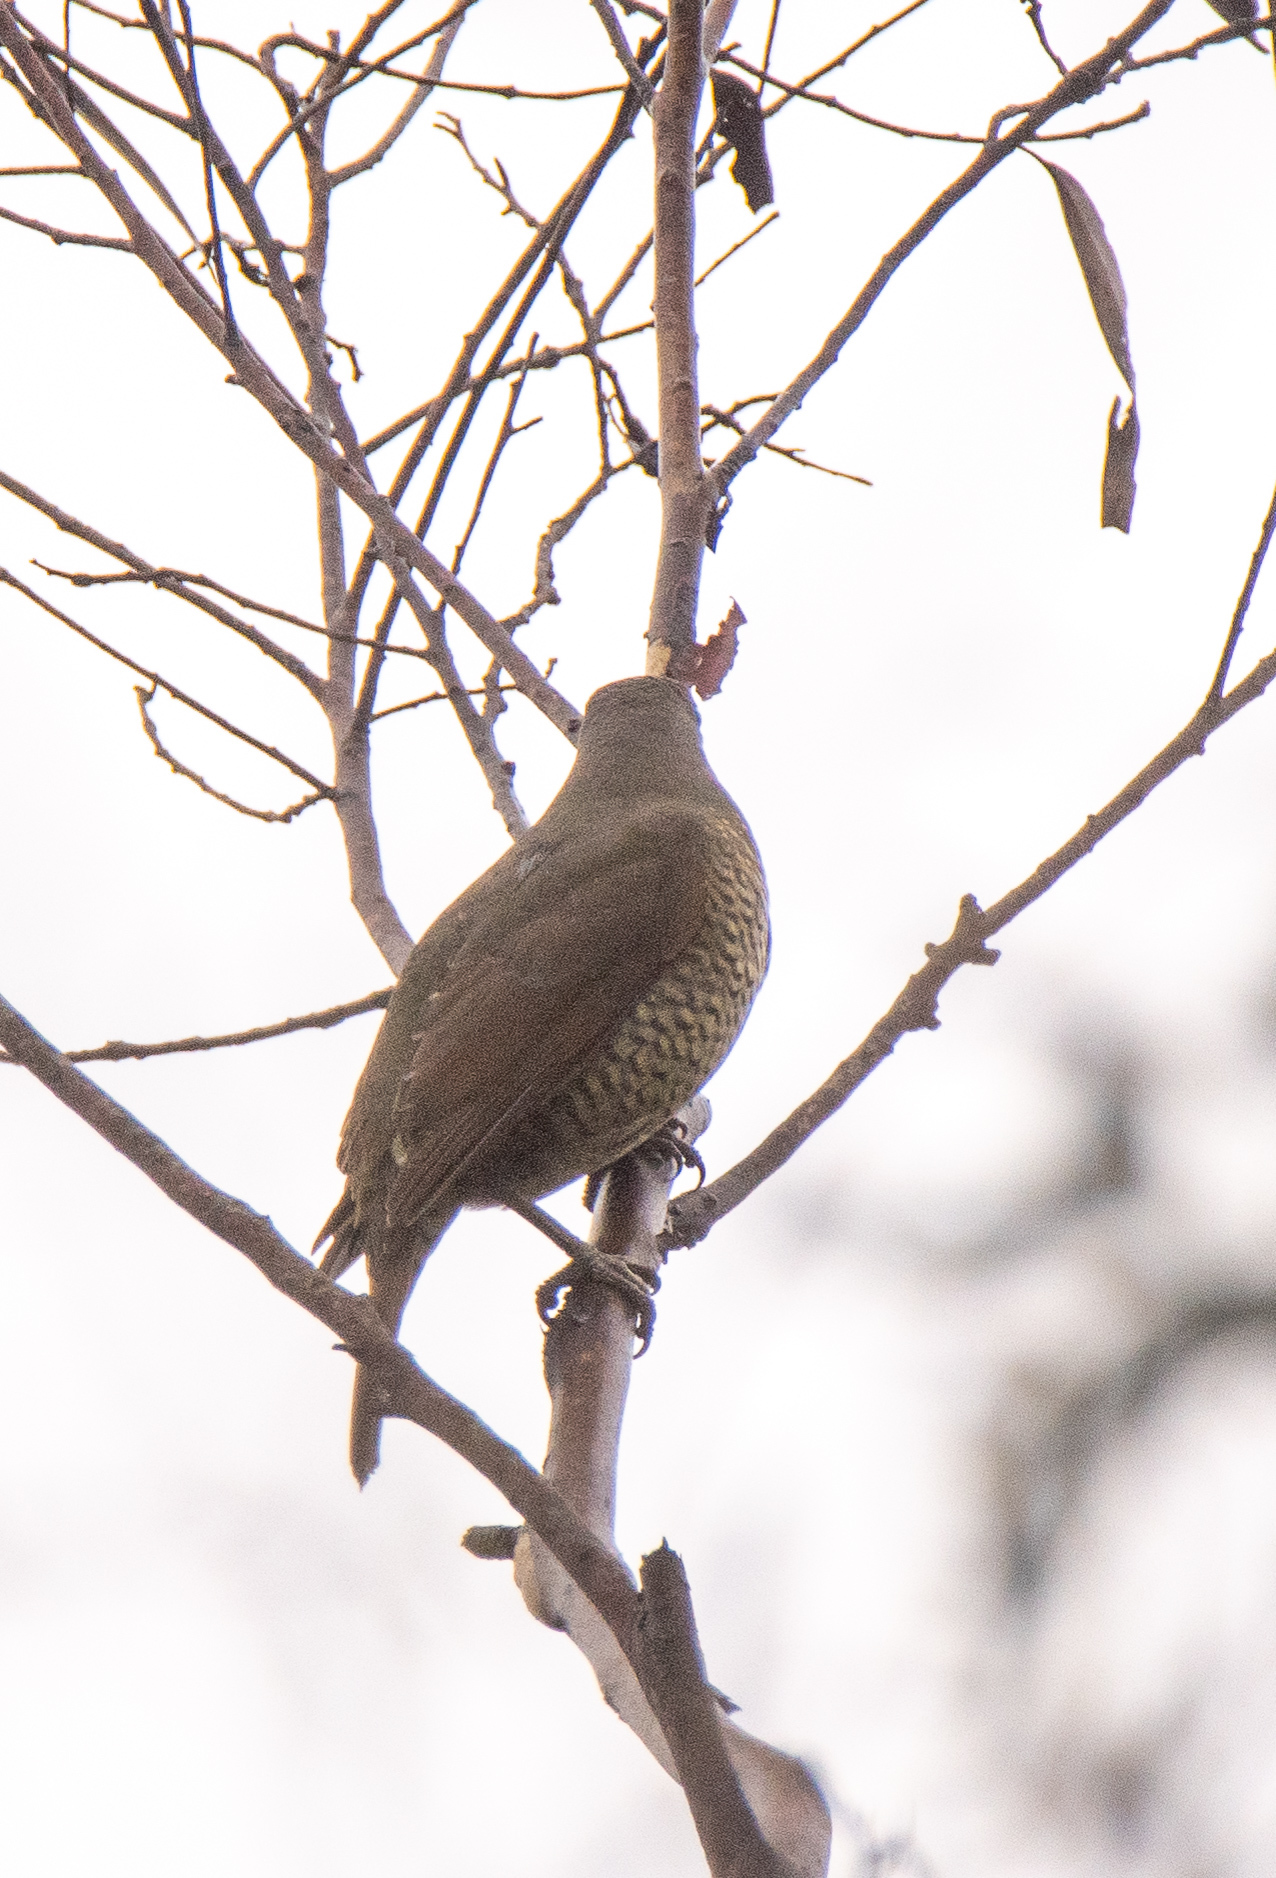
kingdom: Animalia
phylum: Chordata
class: Aves
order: Passeriformes
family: Ptilonorhynchidae
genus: Ptilonorhynchus
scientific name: Ptilonorhynchus violaceus
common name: Satin bowerbird
